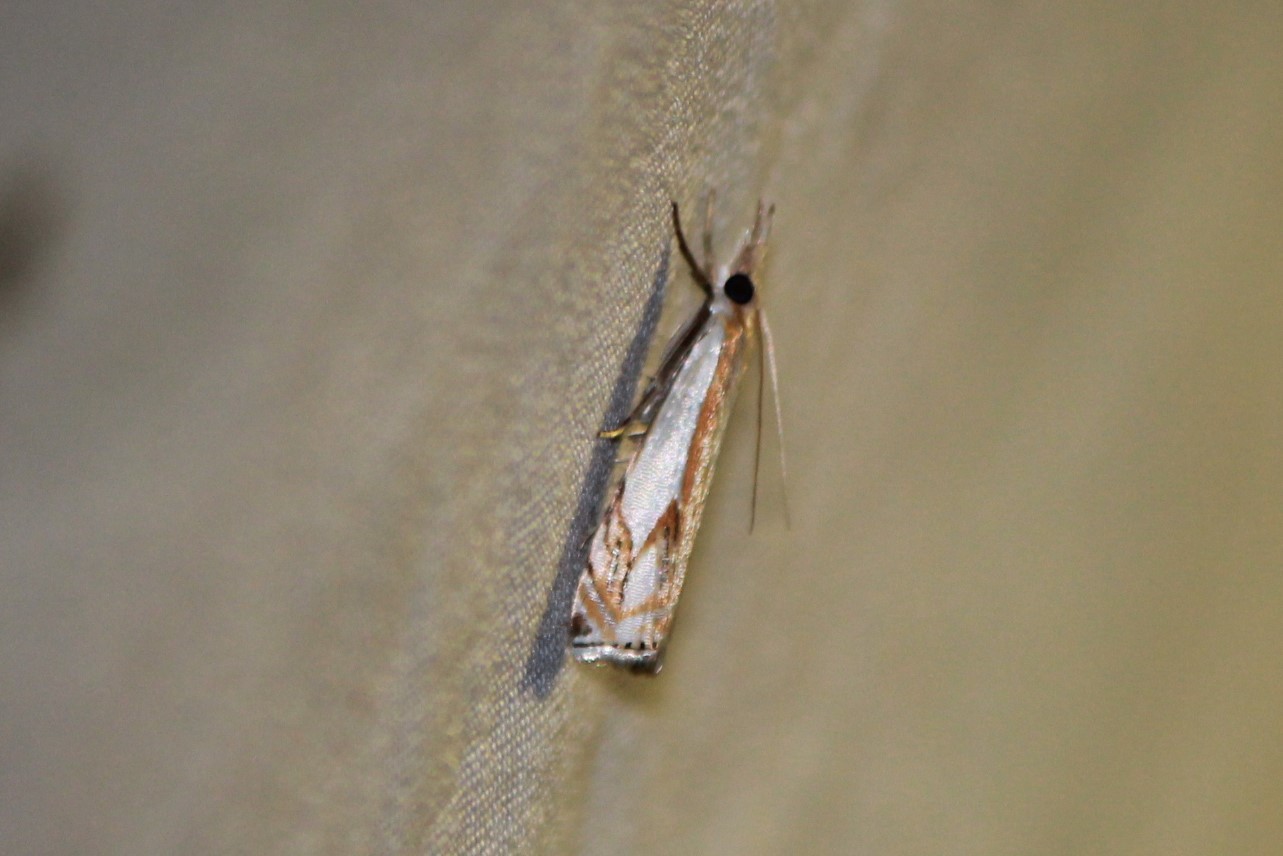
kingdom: Animalia
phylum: Arthropoda
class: Insecta
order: Lepidoptera
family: Crambidae
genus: Crambus
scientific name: Crambus agitatellus
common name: Double-banded grass-veneer
